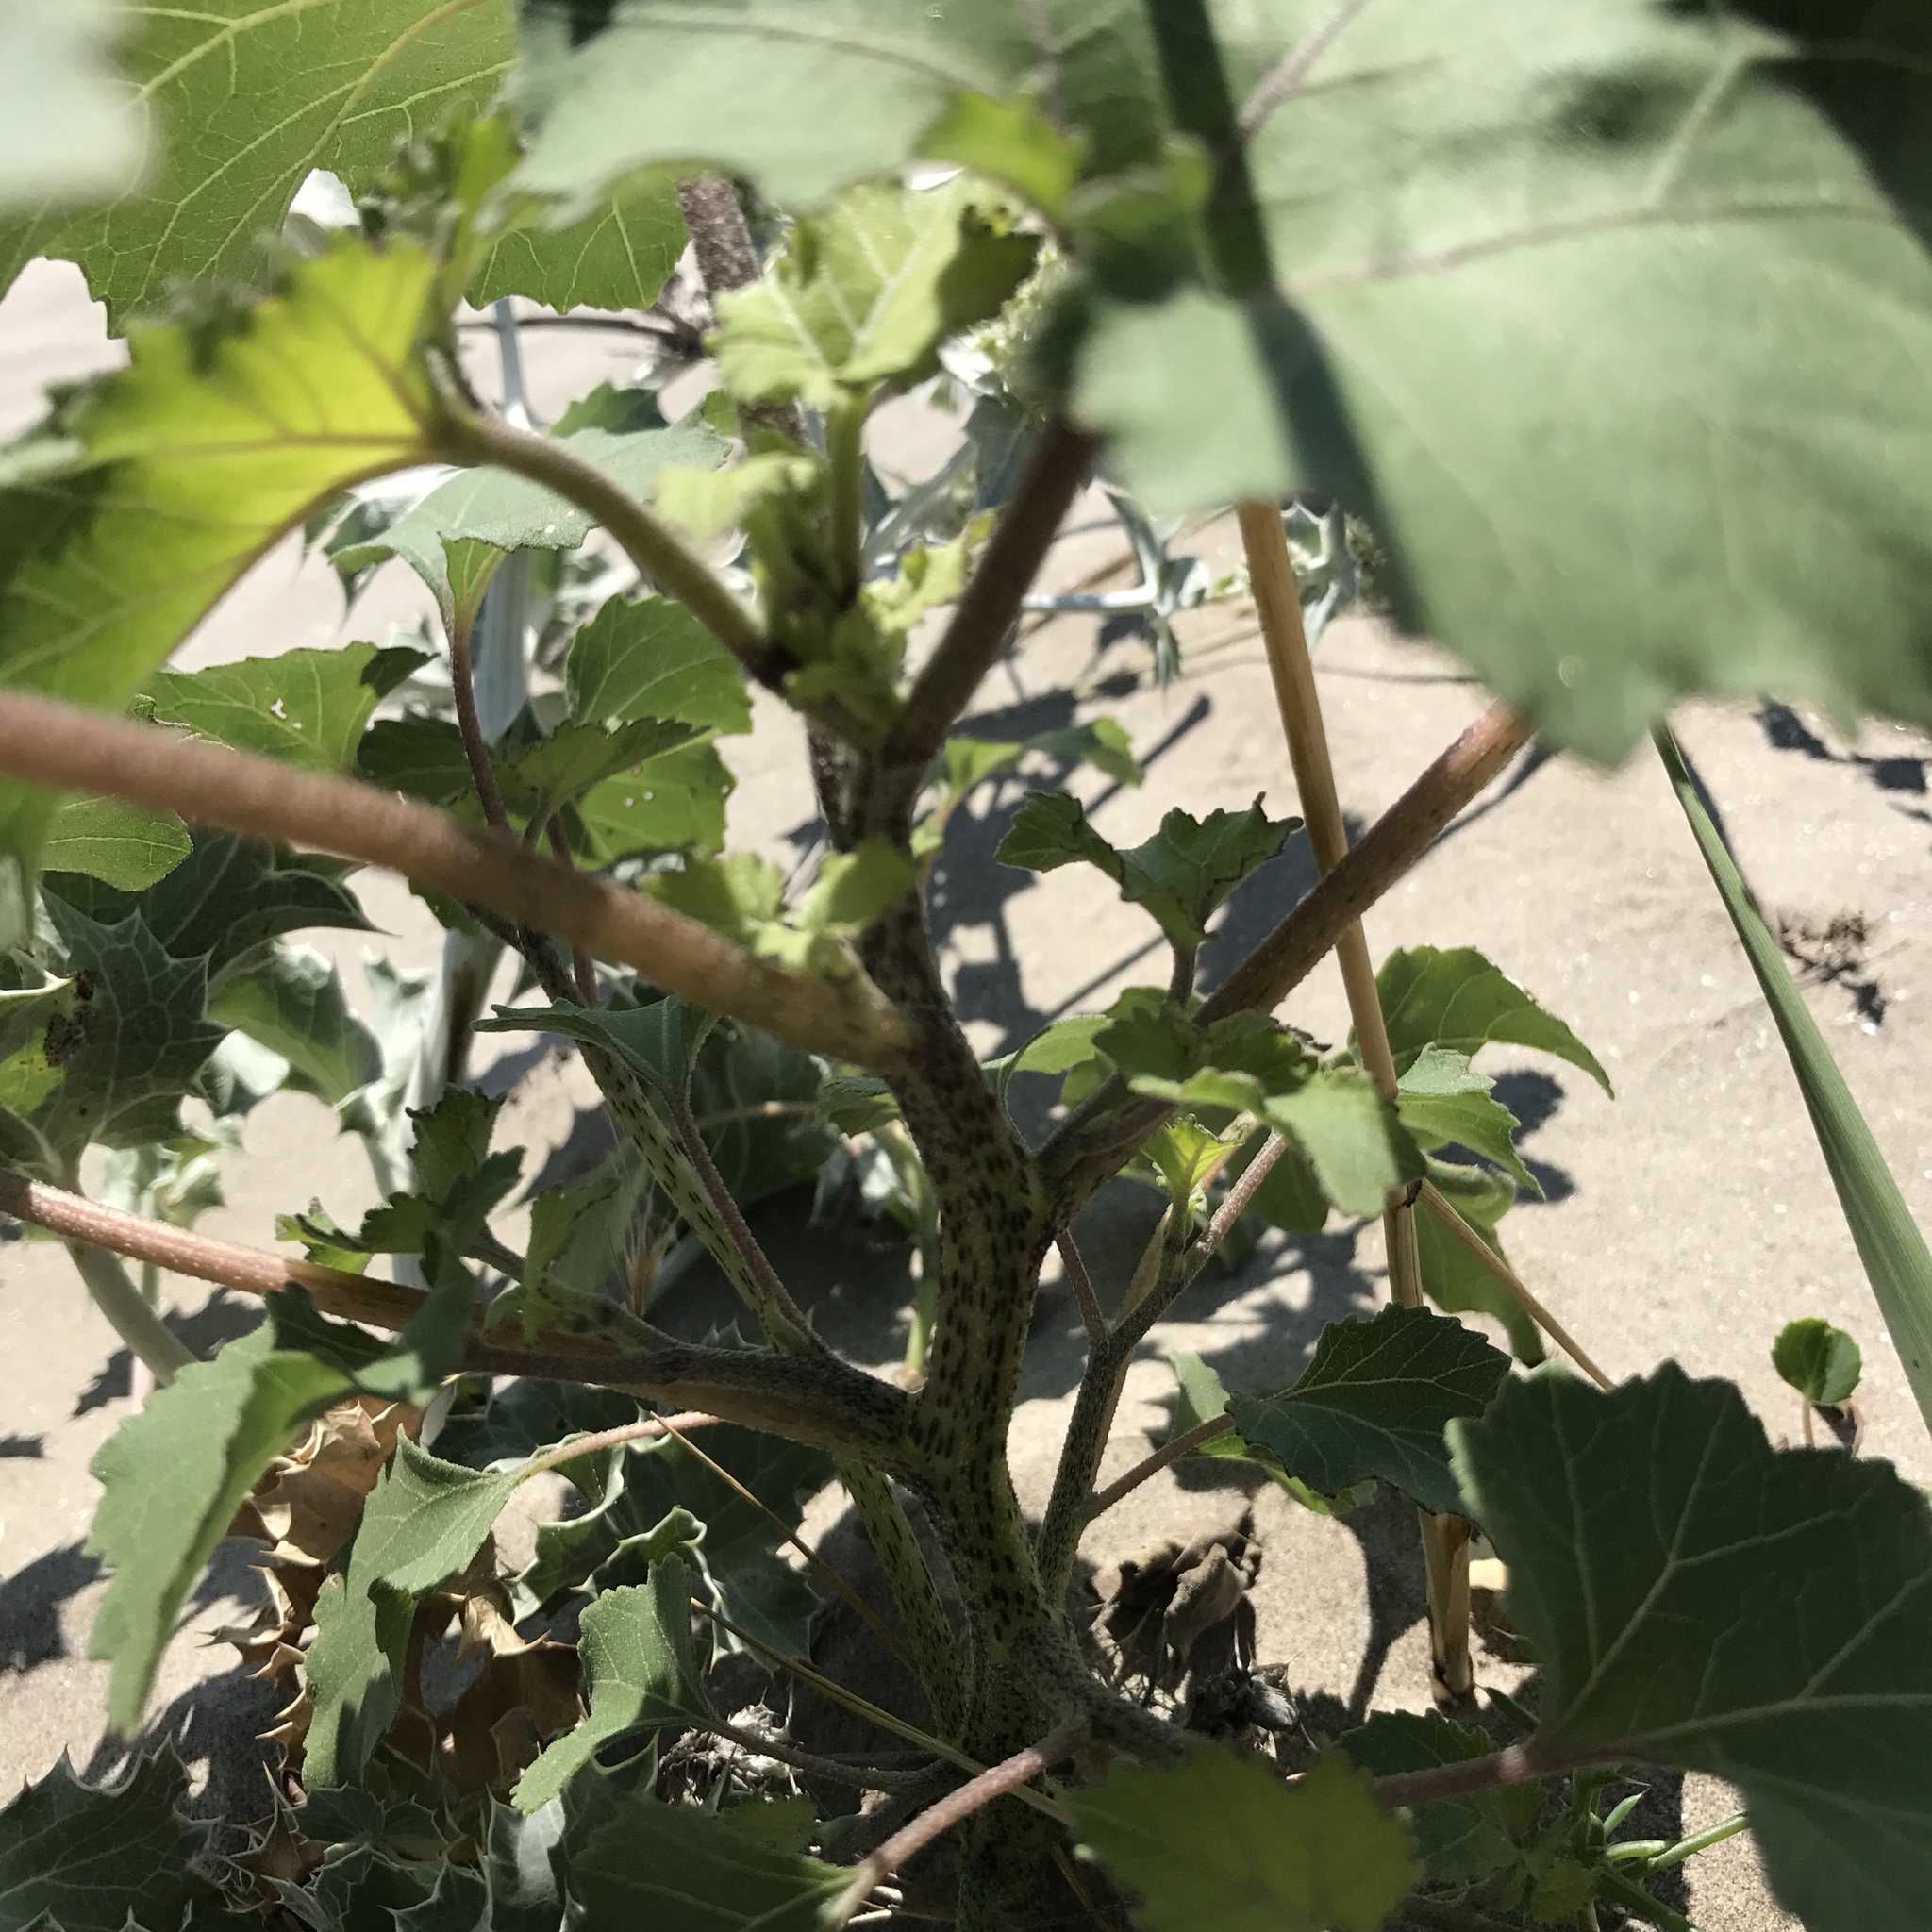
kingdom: Plantae
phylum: Tracheophyta
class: Magnoliopsida
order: Asterales
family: Asteraceae
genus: Xanthium
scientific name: Xanthium strumarium
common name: Rough cocklebur
